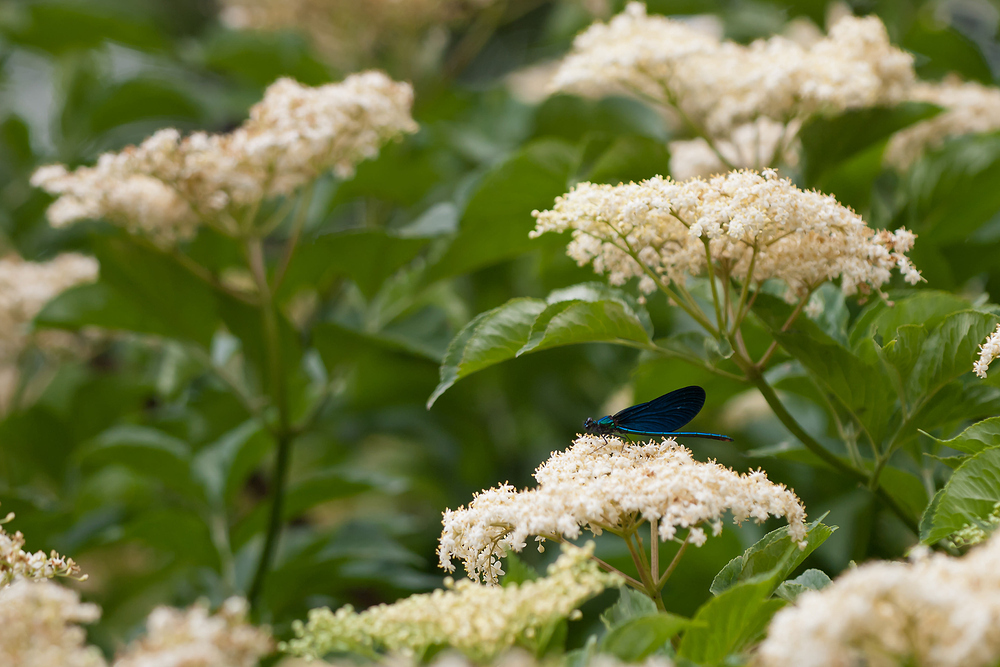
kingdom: Animalia
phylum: Arthropoda
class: Insecta
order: Odonata
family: Calopterygidae
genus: Calopteryx
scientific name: Calopteryx virgo
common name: Beautiful demoiselle
